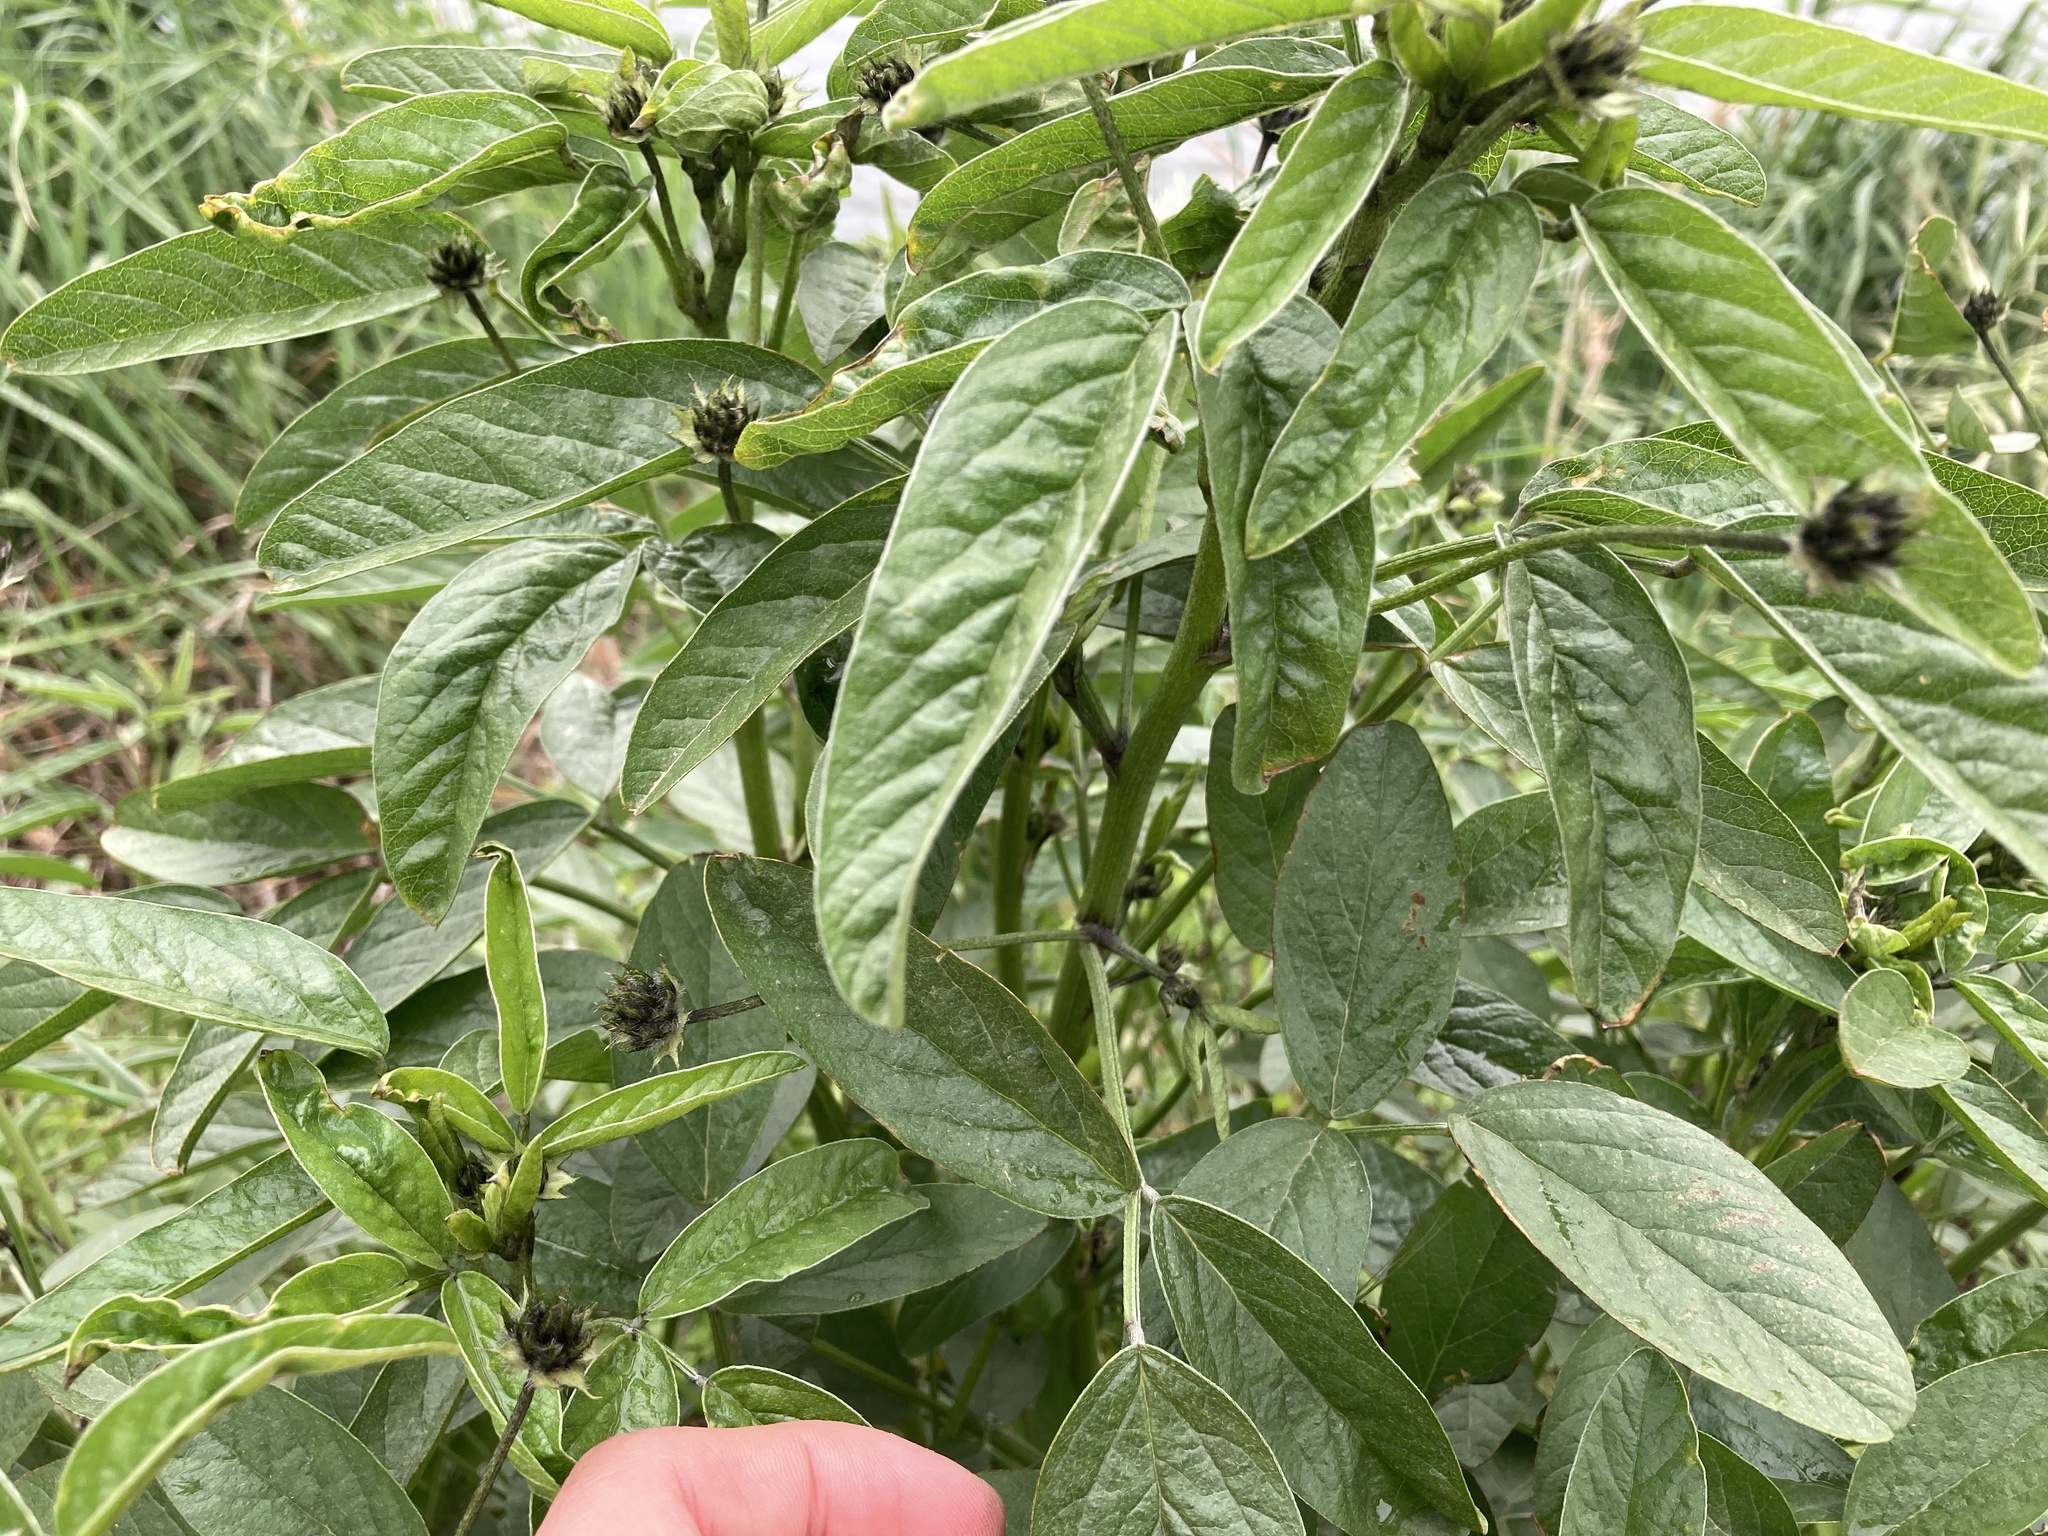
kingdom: Plantae
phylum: Tracheophyta
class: Magnoliopsida
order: Fabales
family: Fabaceae
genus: Bituminaria
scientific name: Bituminaria bituminosa
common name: Arabian pea
